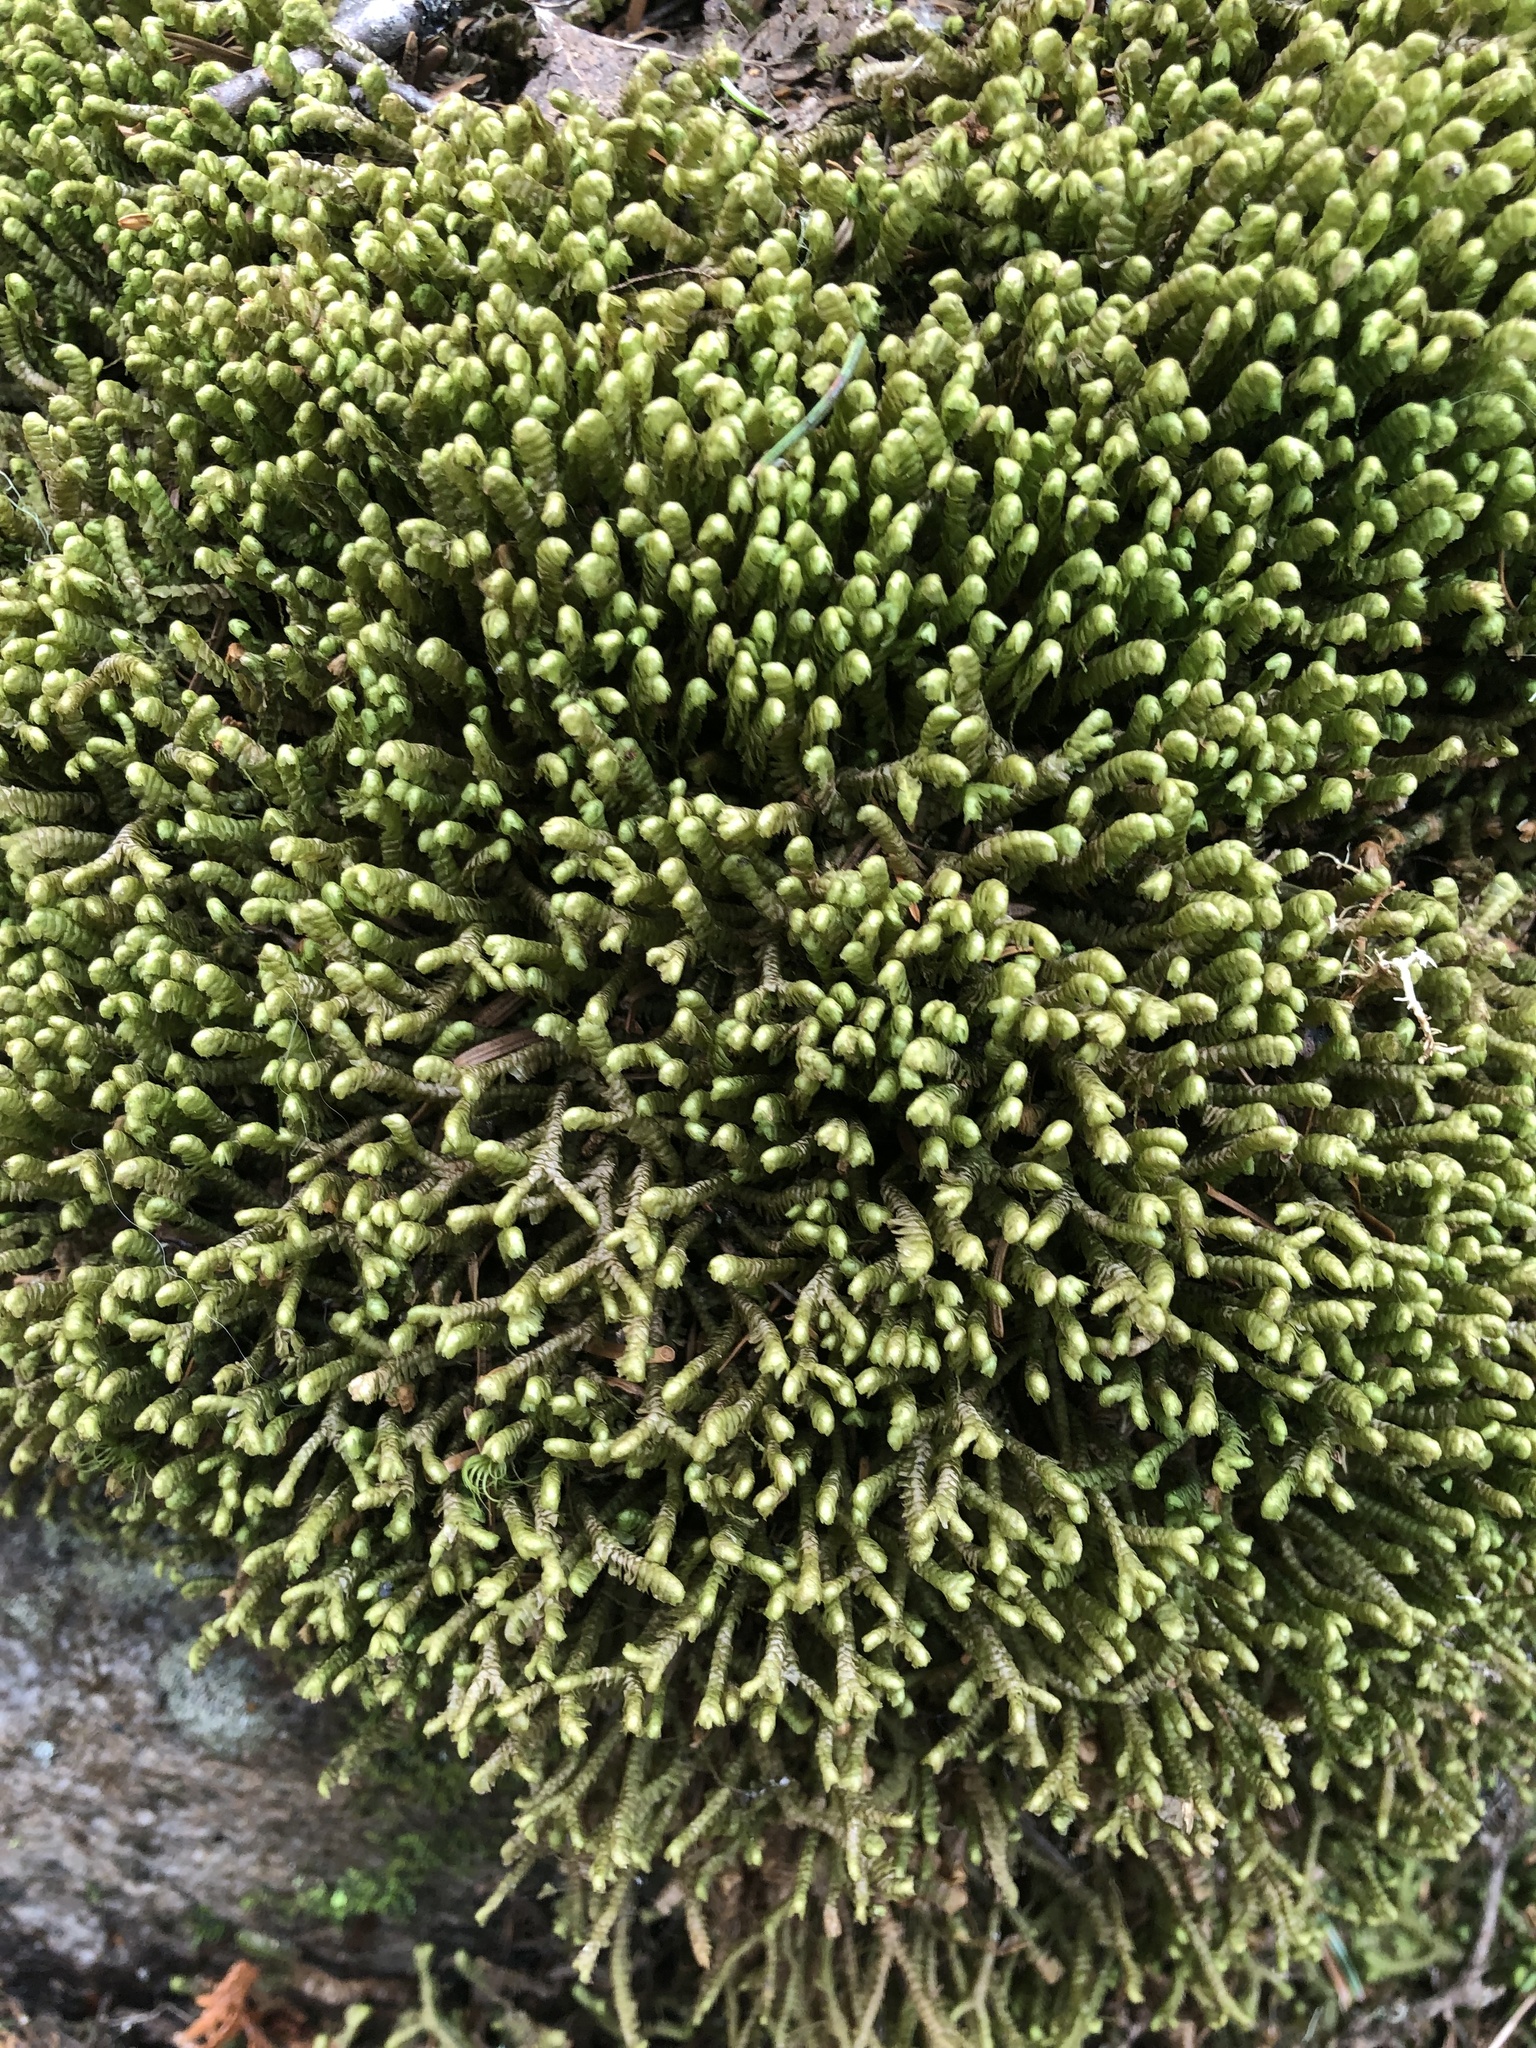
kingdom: Plantae
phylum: Marchantiophyta
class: Jungermanniopsida
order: Jungermanniales
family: Lepidoziaceae
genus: Bazzania
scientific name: Bazzania trilobata
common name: Three-lobed whipwort
